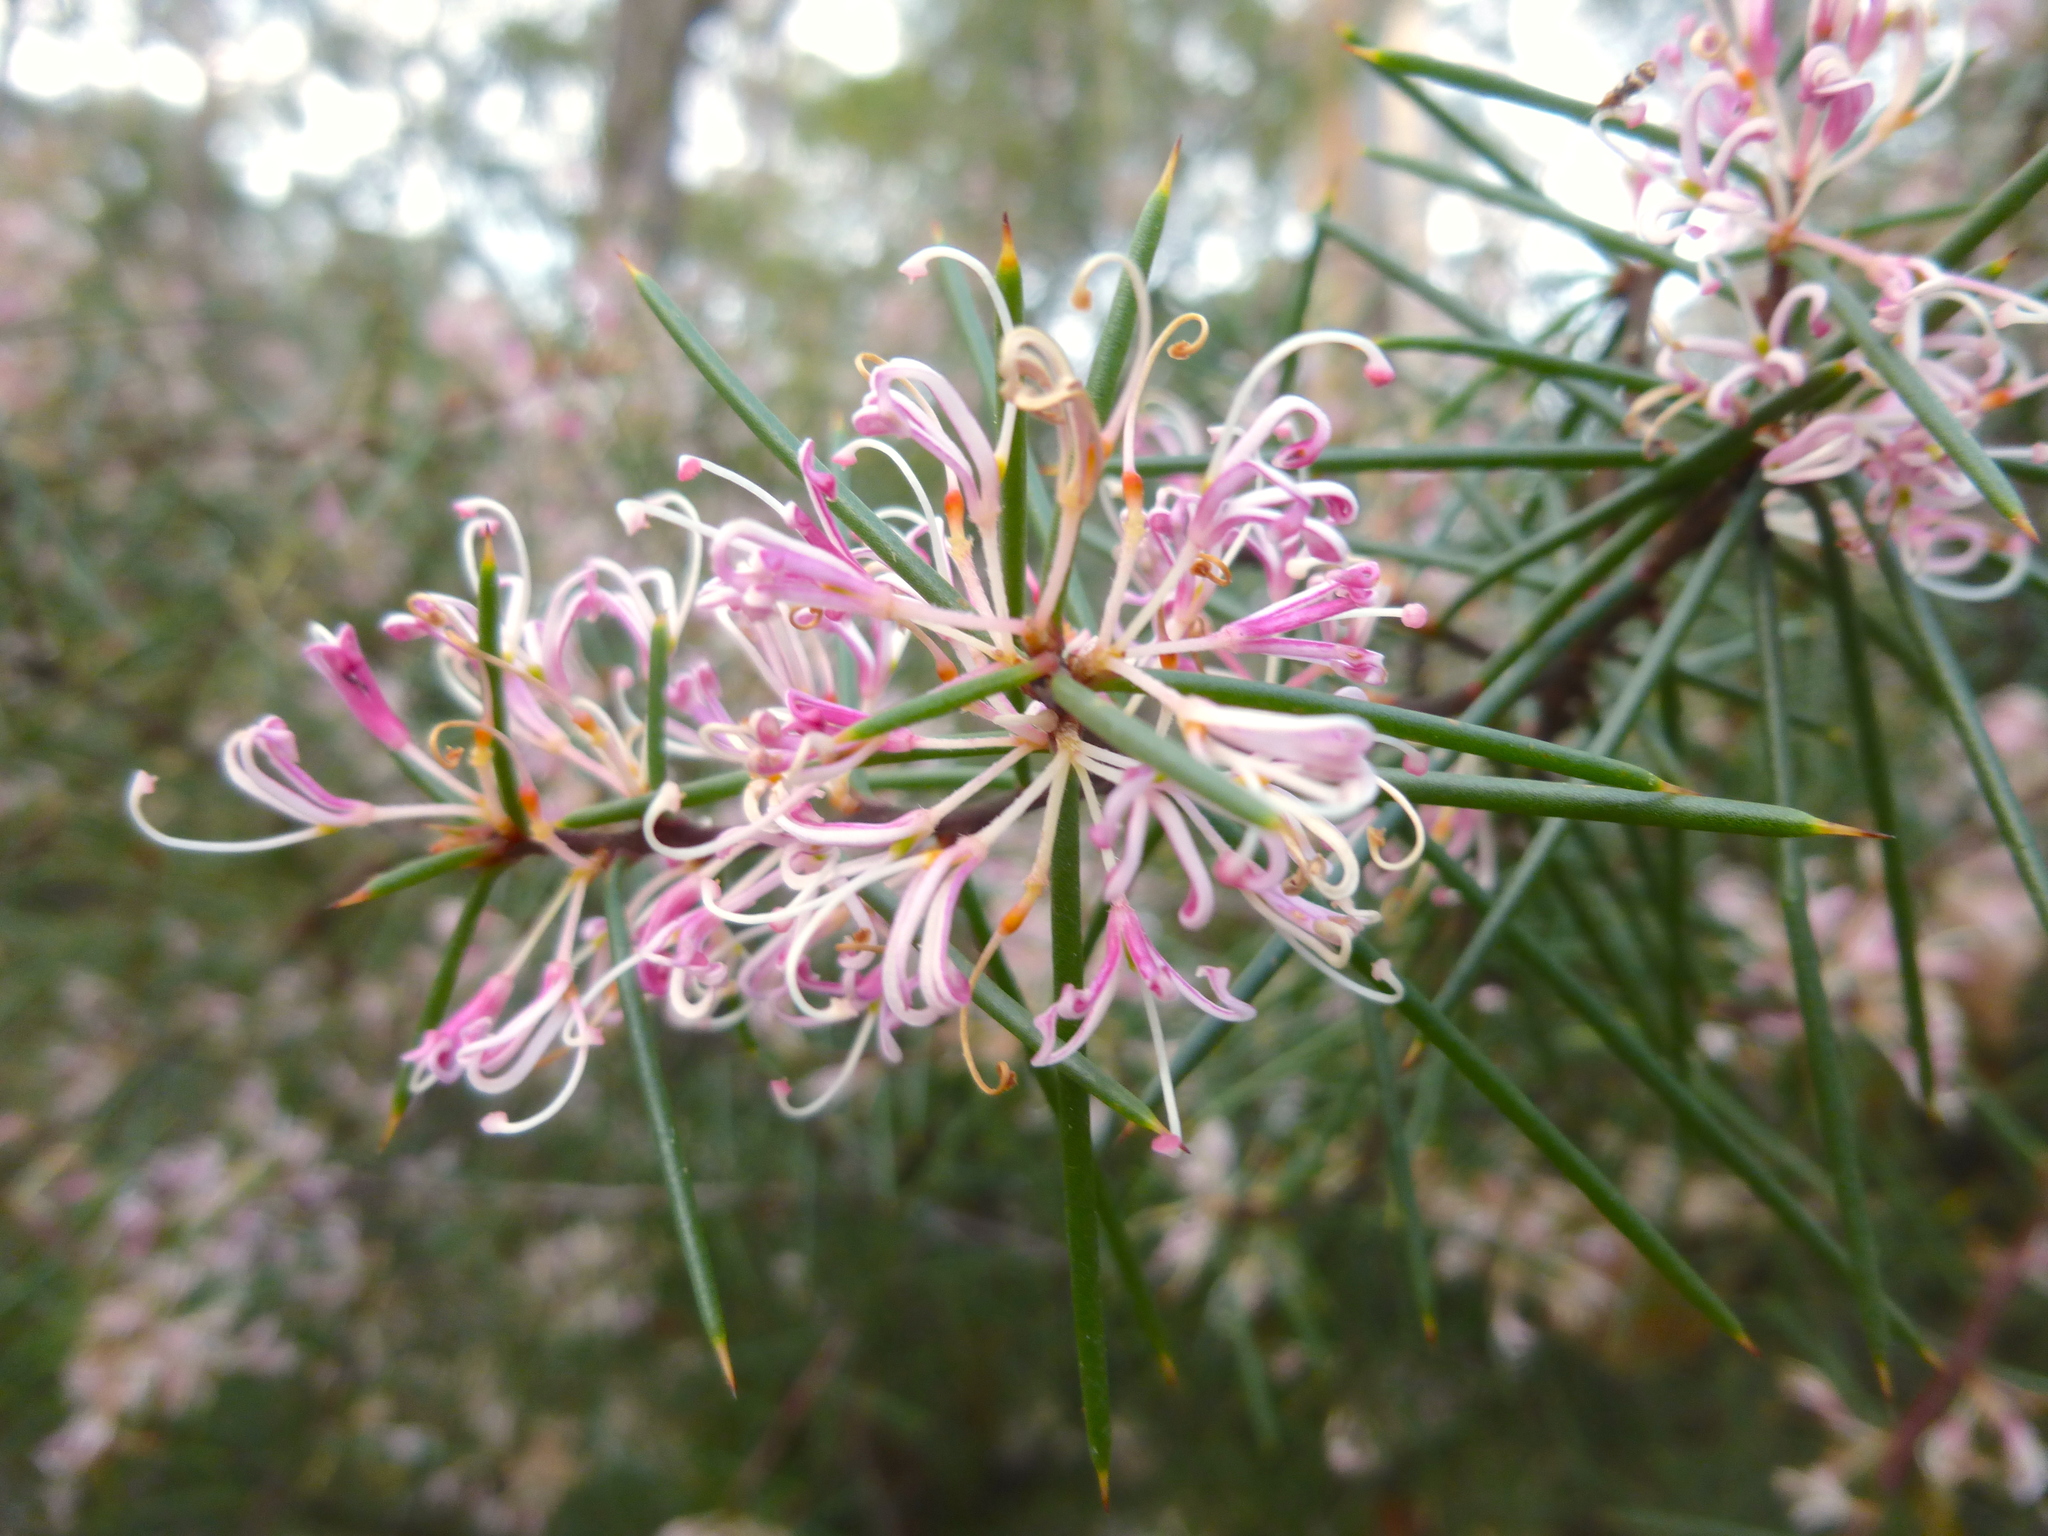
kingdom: Plantae
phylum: Tracheophyta
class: Magnoliopsida
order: Proteales
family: Proteaceae
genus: Hakea
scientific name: Hakea decurrens
